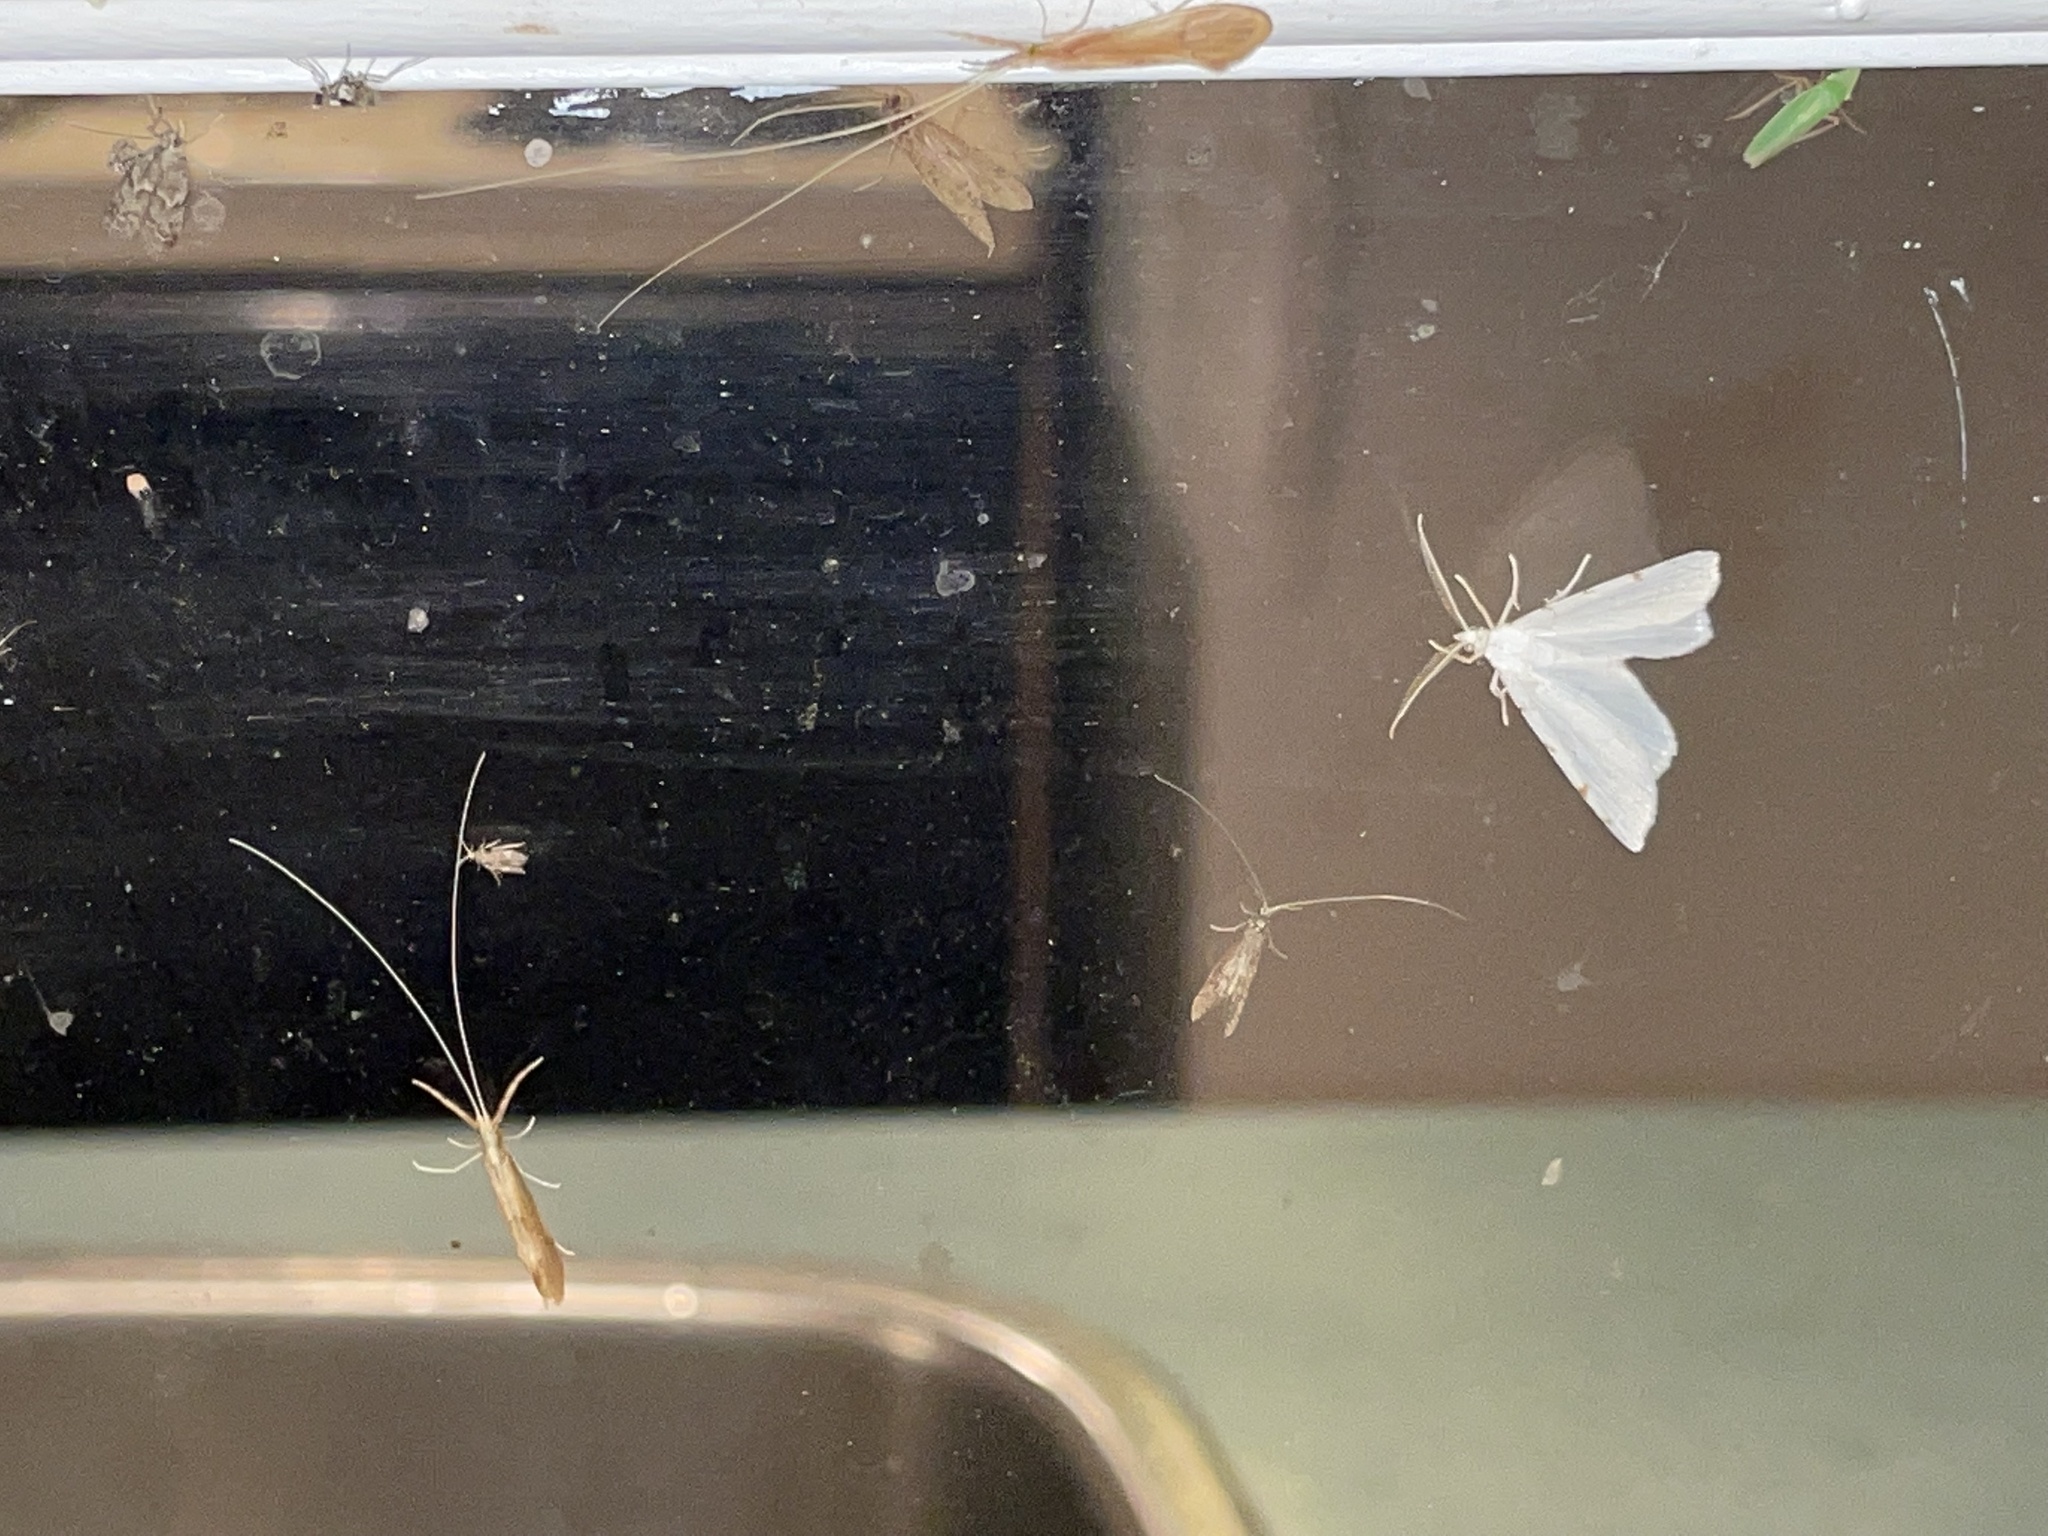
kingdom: Animalia
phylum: Arthropoda
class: Insecta
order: Lepidoptera
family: Geometridae
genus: Macaria
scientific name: Macaria pustularia
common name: Lesser maple spanworm moth
